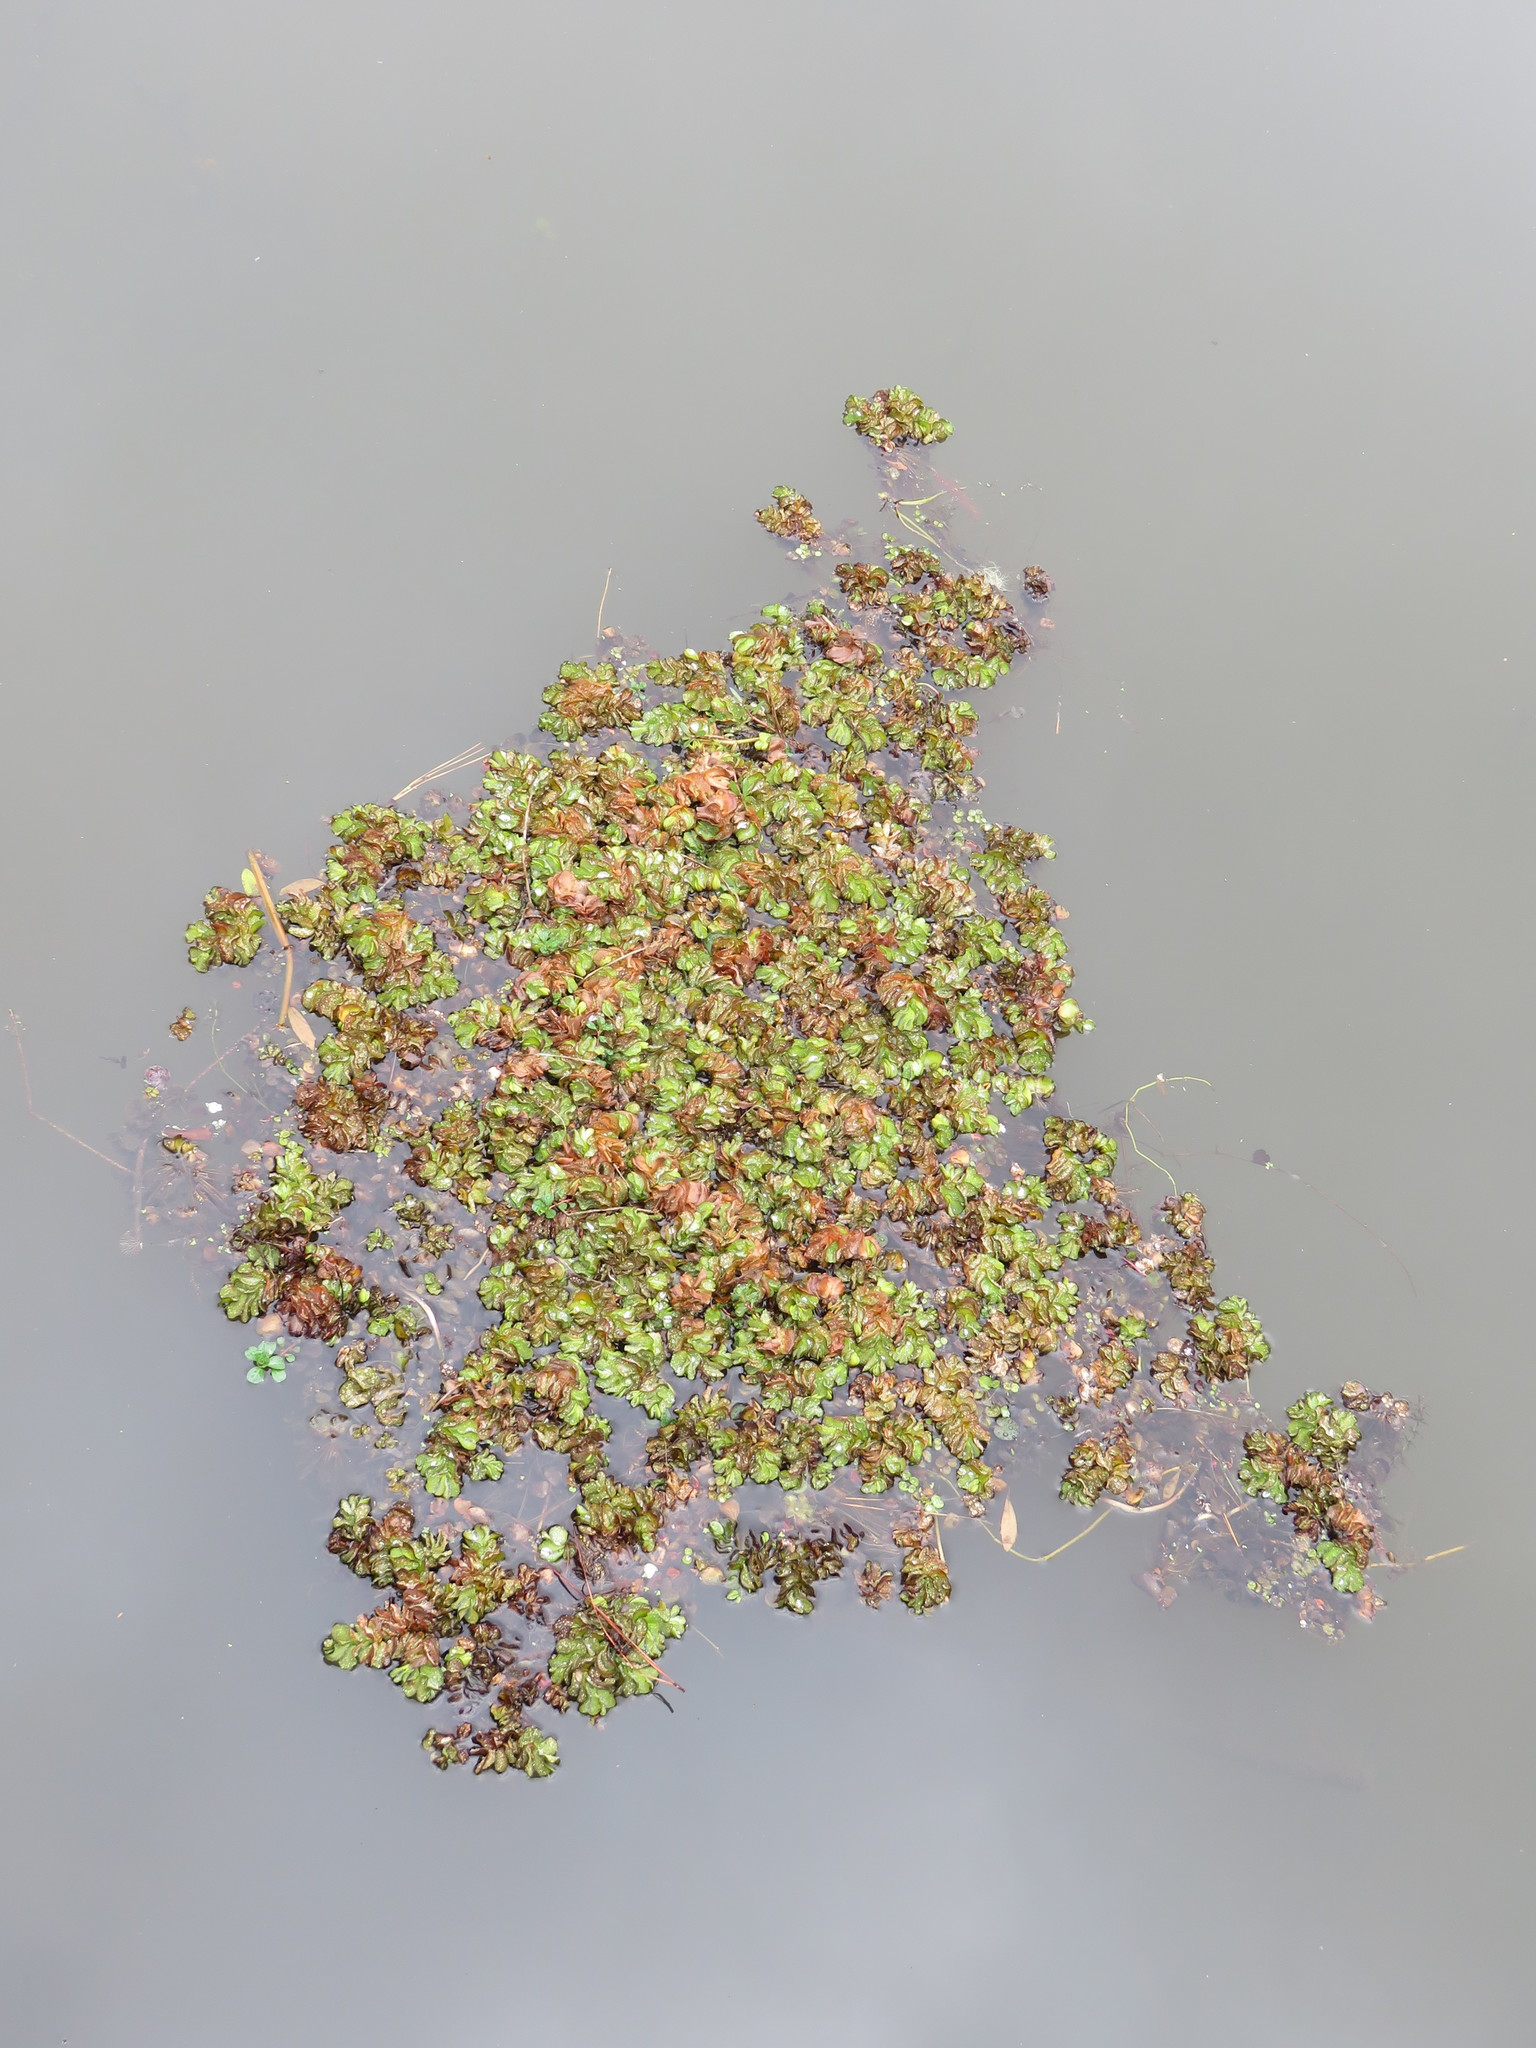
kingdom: Plantae
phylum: Tracheophyta
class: Polypodiopsida
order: Salviniales
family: Salviniaceae
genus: Salvinia
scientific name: Salvinia molesta
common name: Kariba weed
